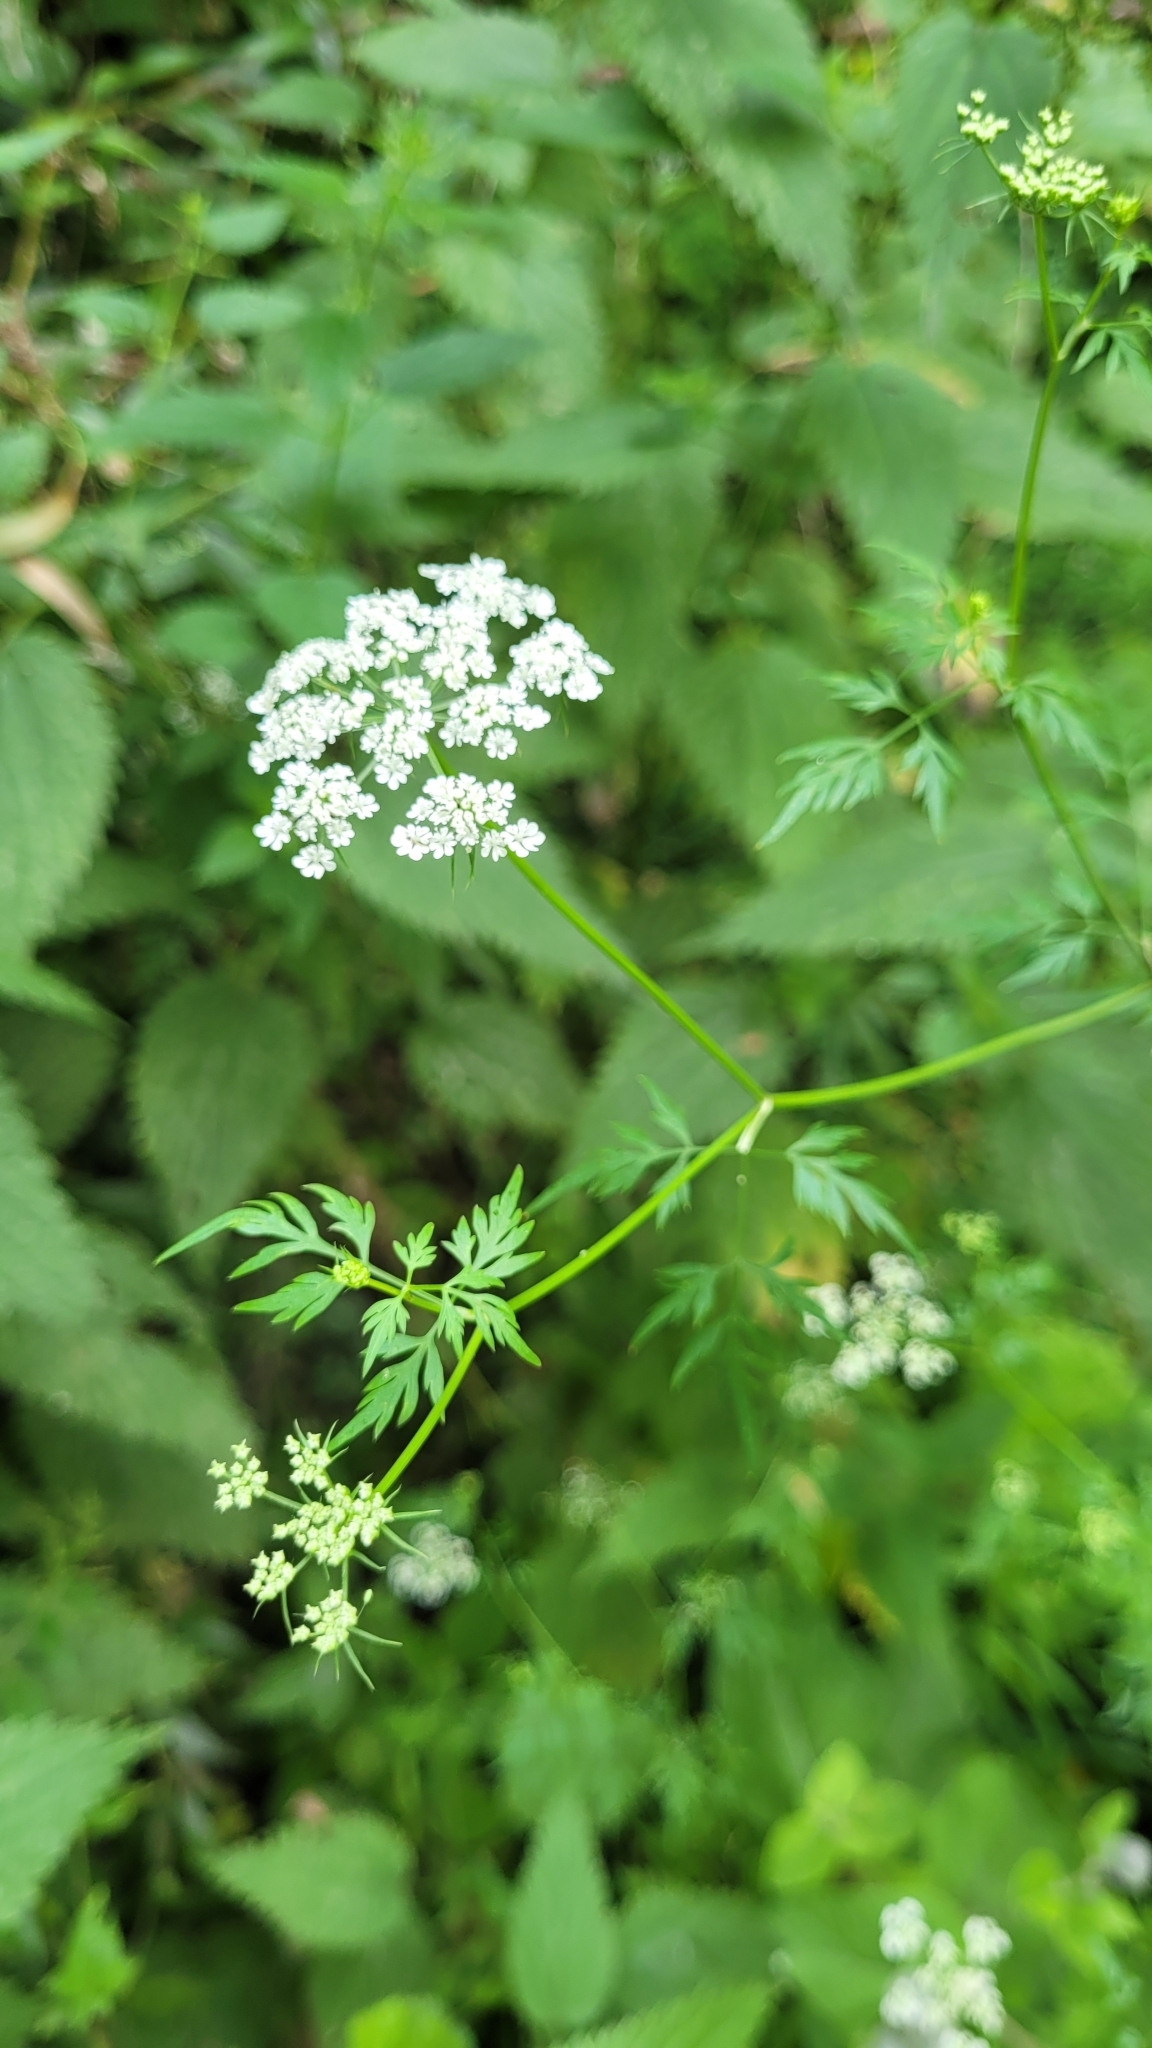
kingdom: Plantae
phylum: Tracheophyta
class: Magnoliopsida
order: Apiales
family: Apiaceae
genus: Aethusa
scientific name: Aethusa cynapium
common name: Fool's parsley
